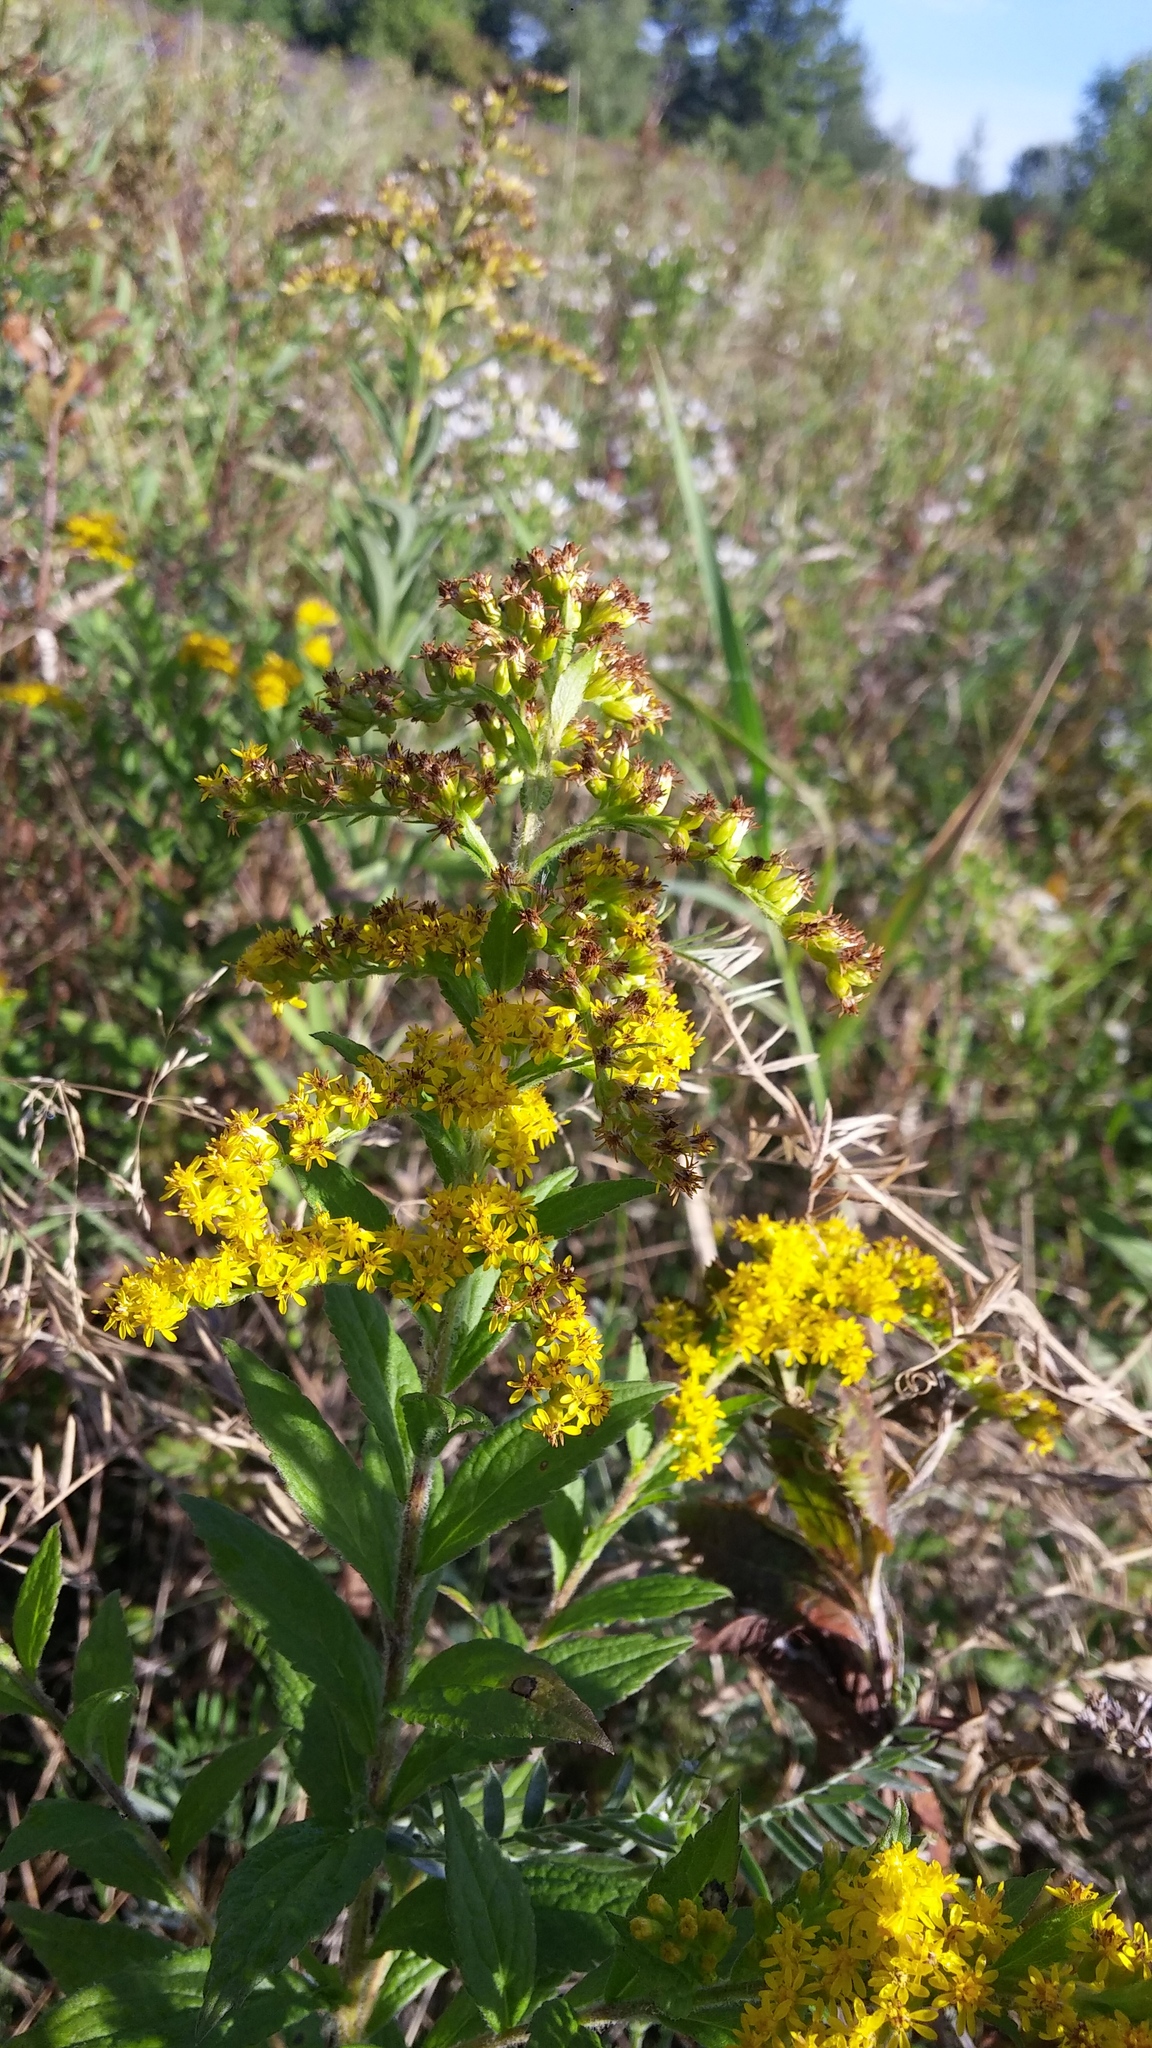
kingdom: Plantae
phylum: Tracheophyta
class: Magnoliopsida
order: Asterales
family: Asteraceae
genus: Solidago
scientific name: Solidago rugosa
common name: Rough-stemmed goldenrod
